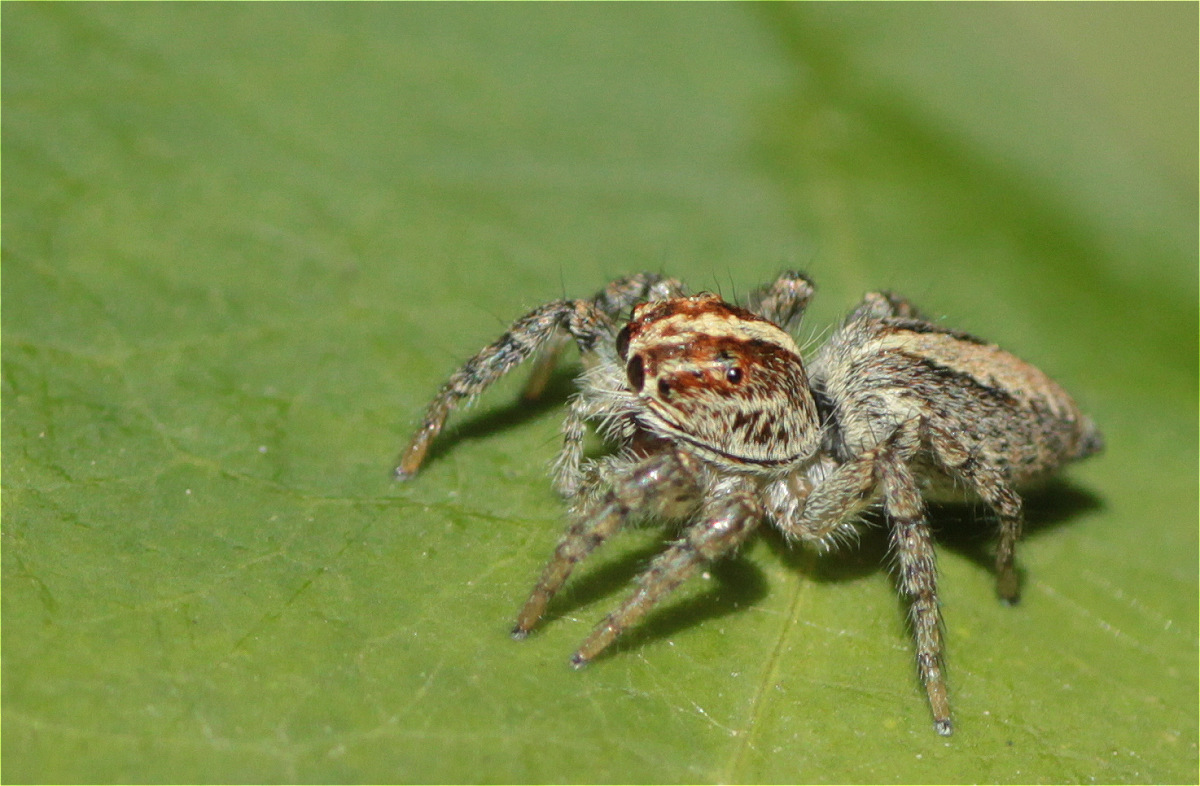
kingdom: Animalia
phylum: Arthropoda
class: Arachnida
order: Araneae
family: Salticidae
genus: Frigga
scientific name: Frigga crocuta
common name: Jumping spiders
